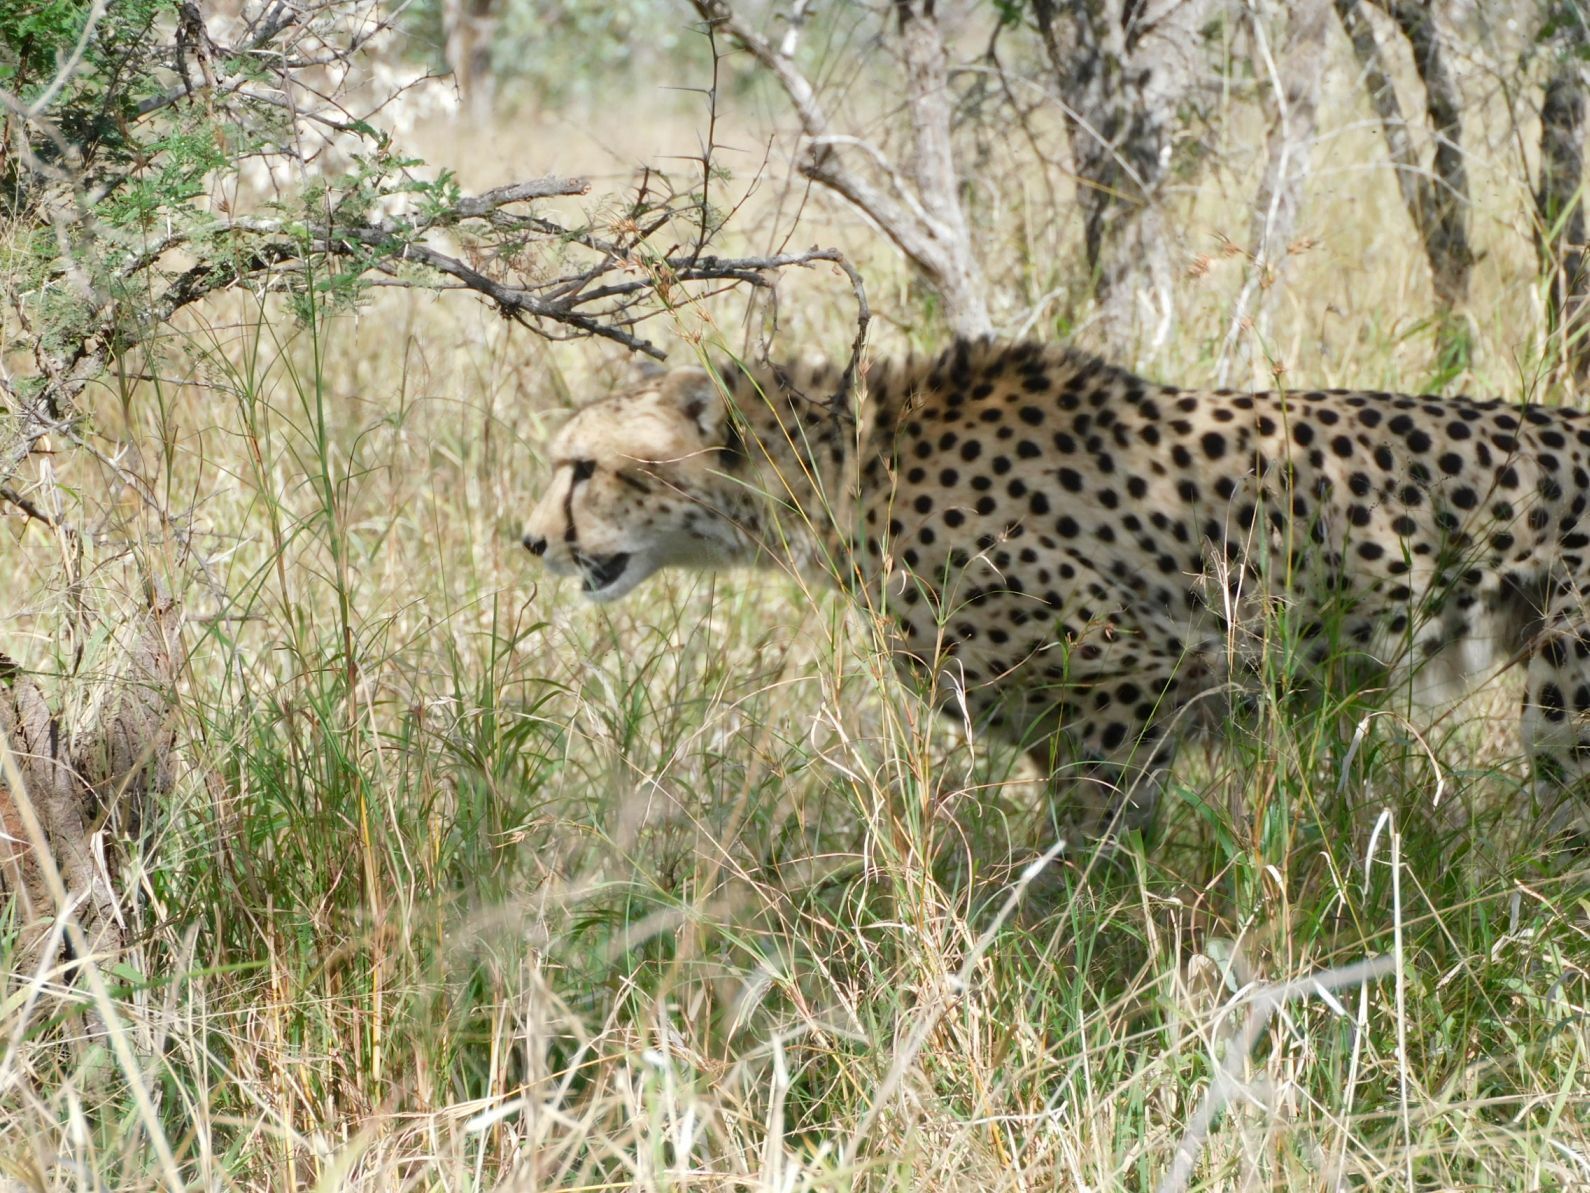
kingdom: Animalia
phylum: Chordata
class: Mammalia
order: Carnivora
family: Felidae
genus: Acinonyx
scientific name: Acinonyx jubatus
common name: Cheetah
